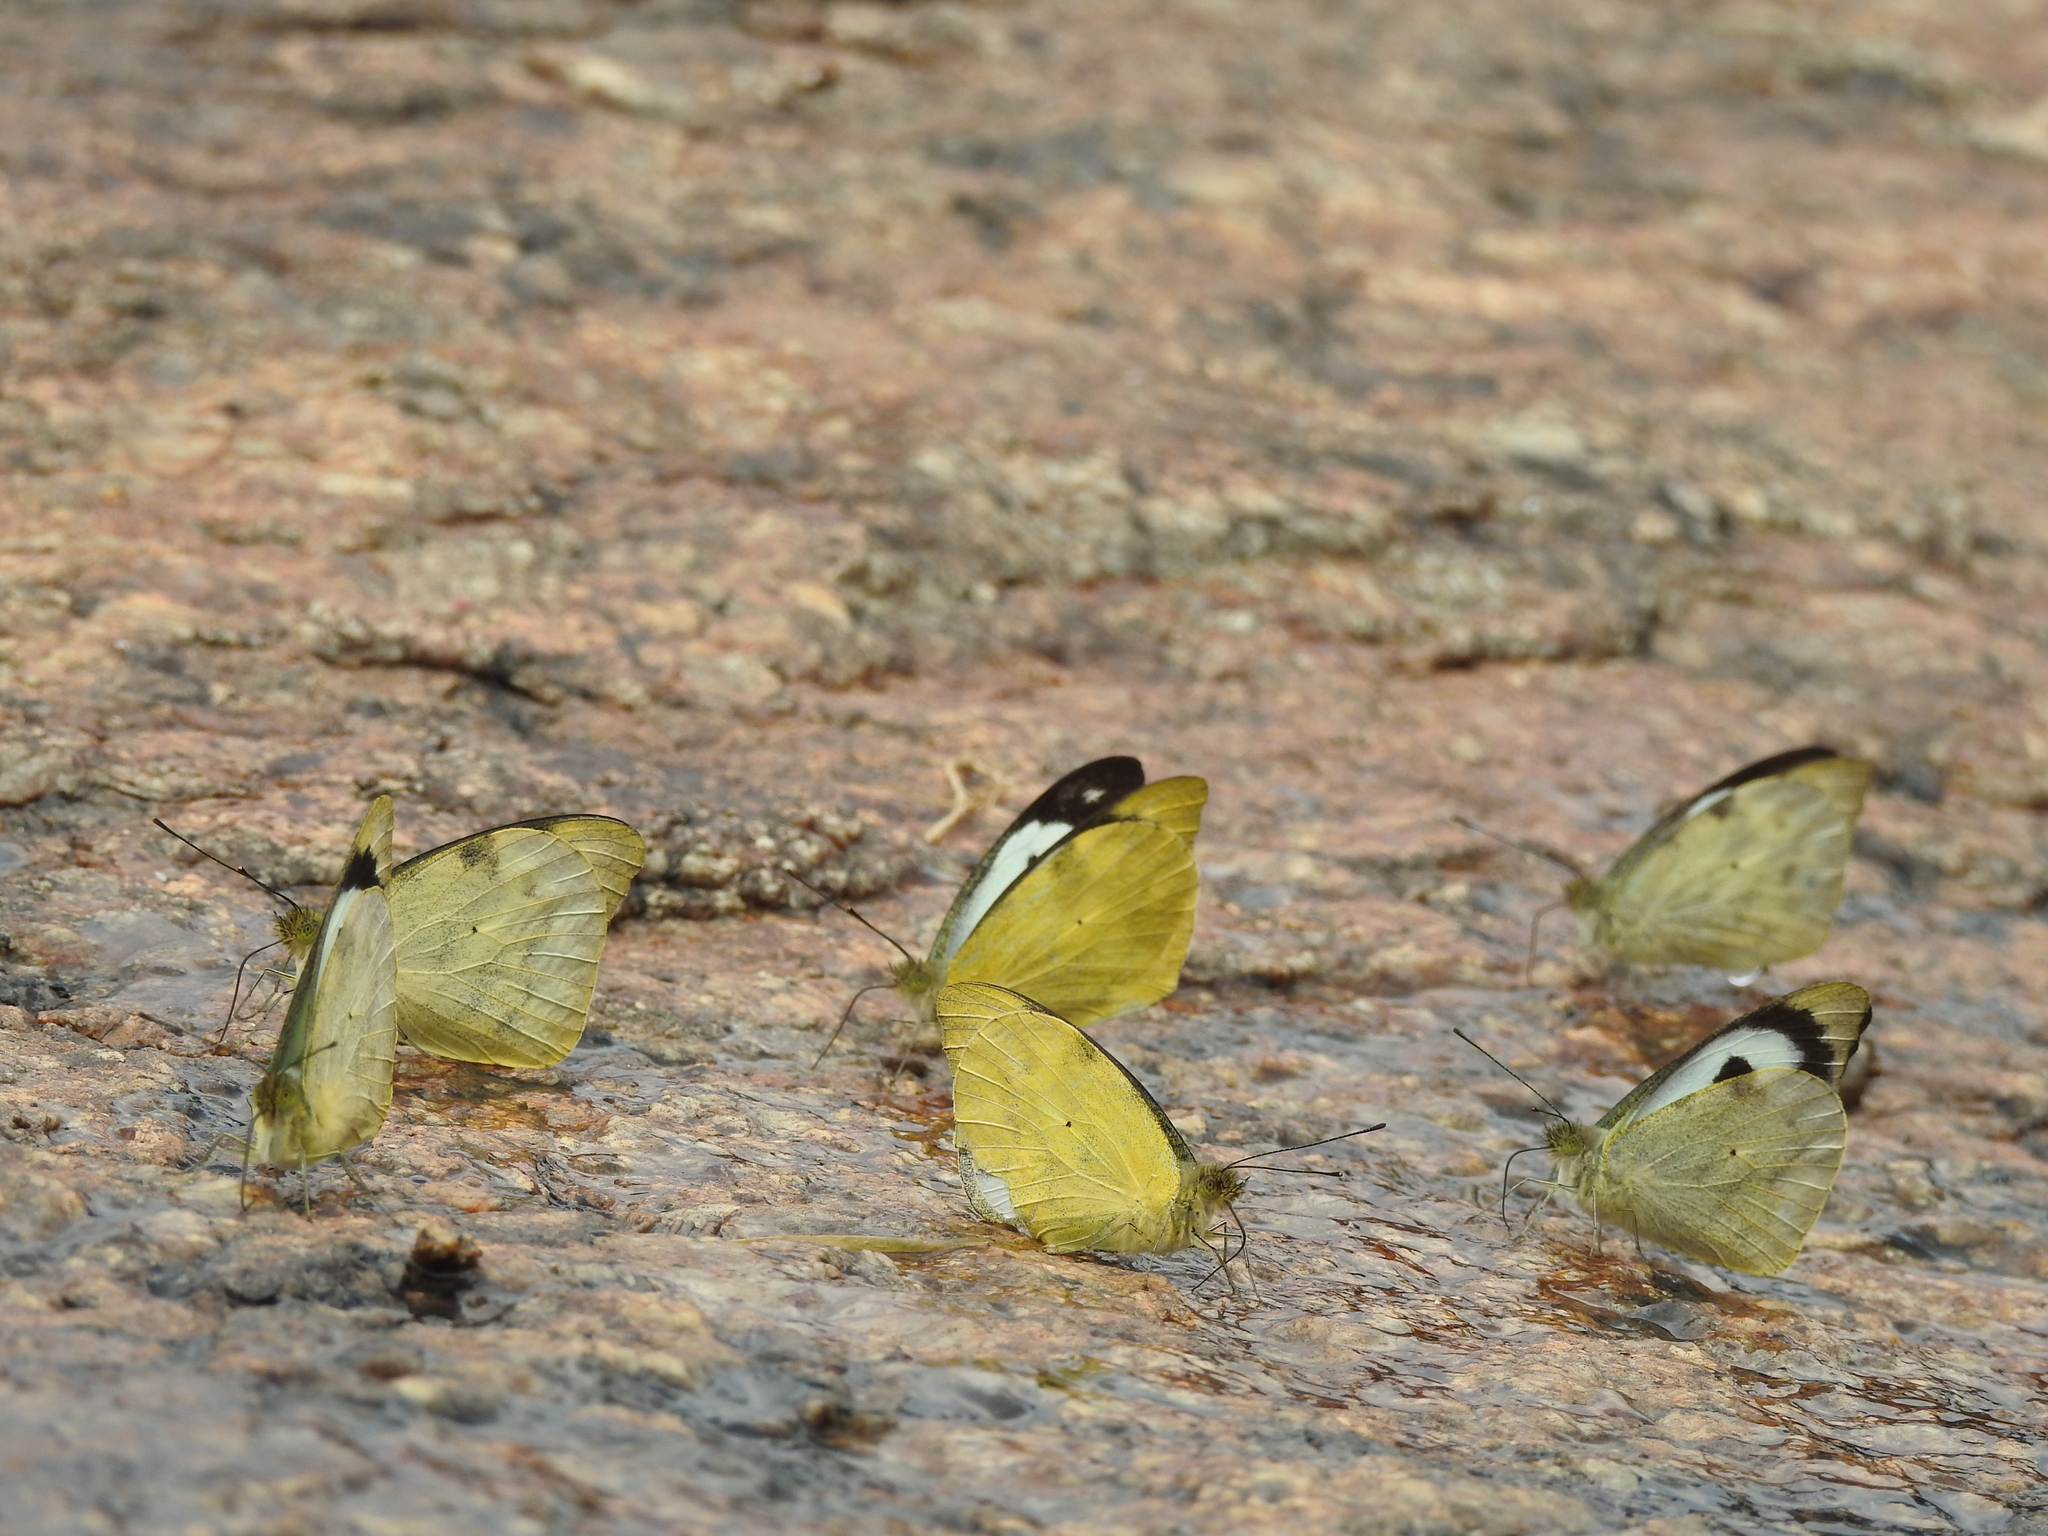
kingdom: Animalia
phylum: Arthropoda
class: Insecta
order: Lepidoptera
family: Pieridae
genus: Appias
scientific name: Appias lalage
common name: Spot puffin
